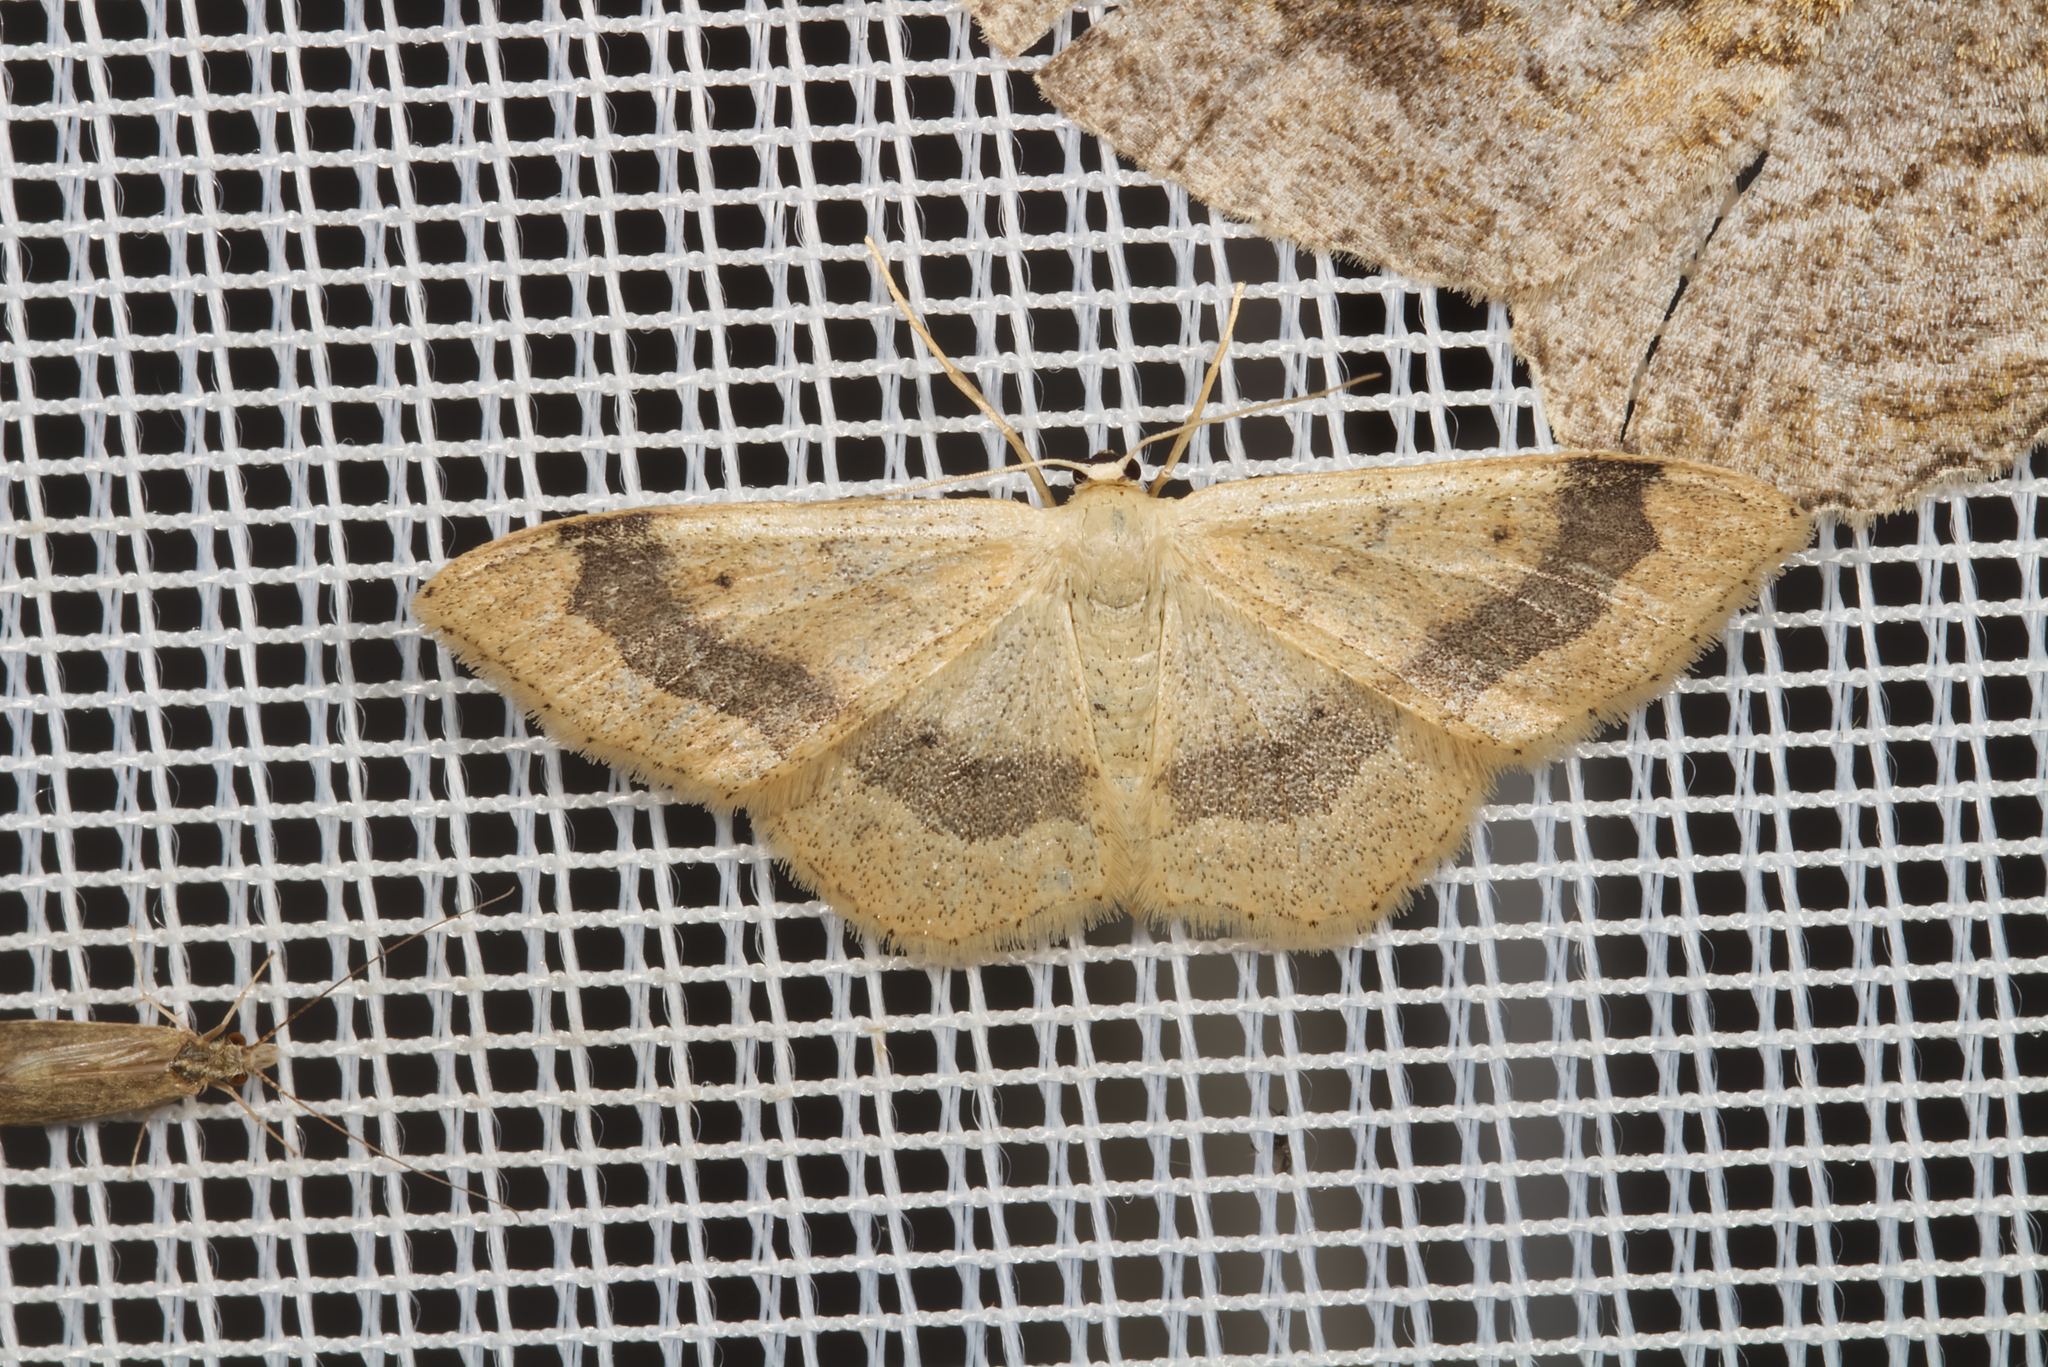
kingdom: Animalia
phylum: Arthropoda
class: Insecta
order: Lepidoptera
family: Geometridae
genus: Idaea
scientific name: Idaea aversata
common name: Riband wave
